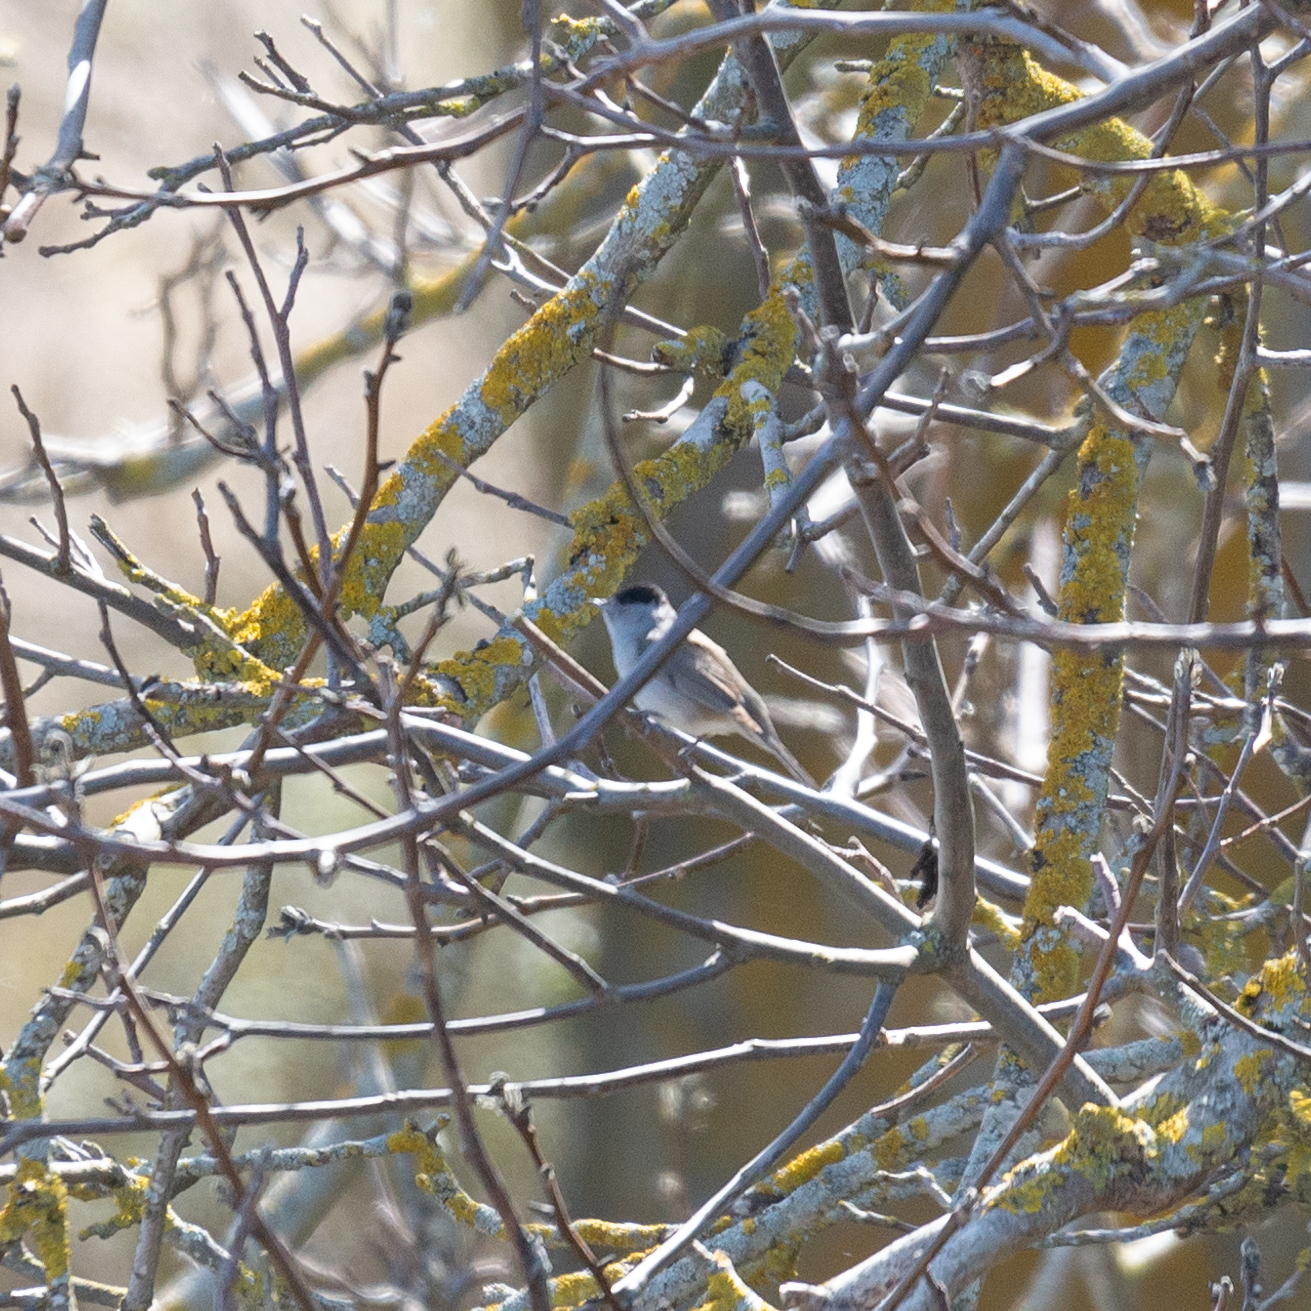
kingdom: Animalia
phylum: Chordata
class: Aves
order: Passeriformes
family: Sylviidae
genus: Sylvia
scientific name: Sylvia atricapilla
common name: Eurasian blackcap
